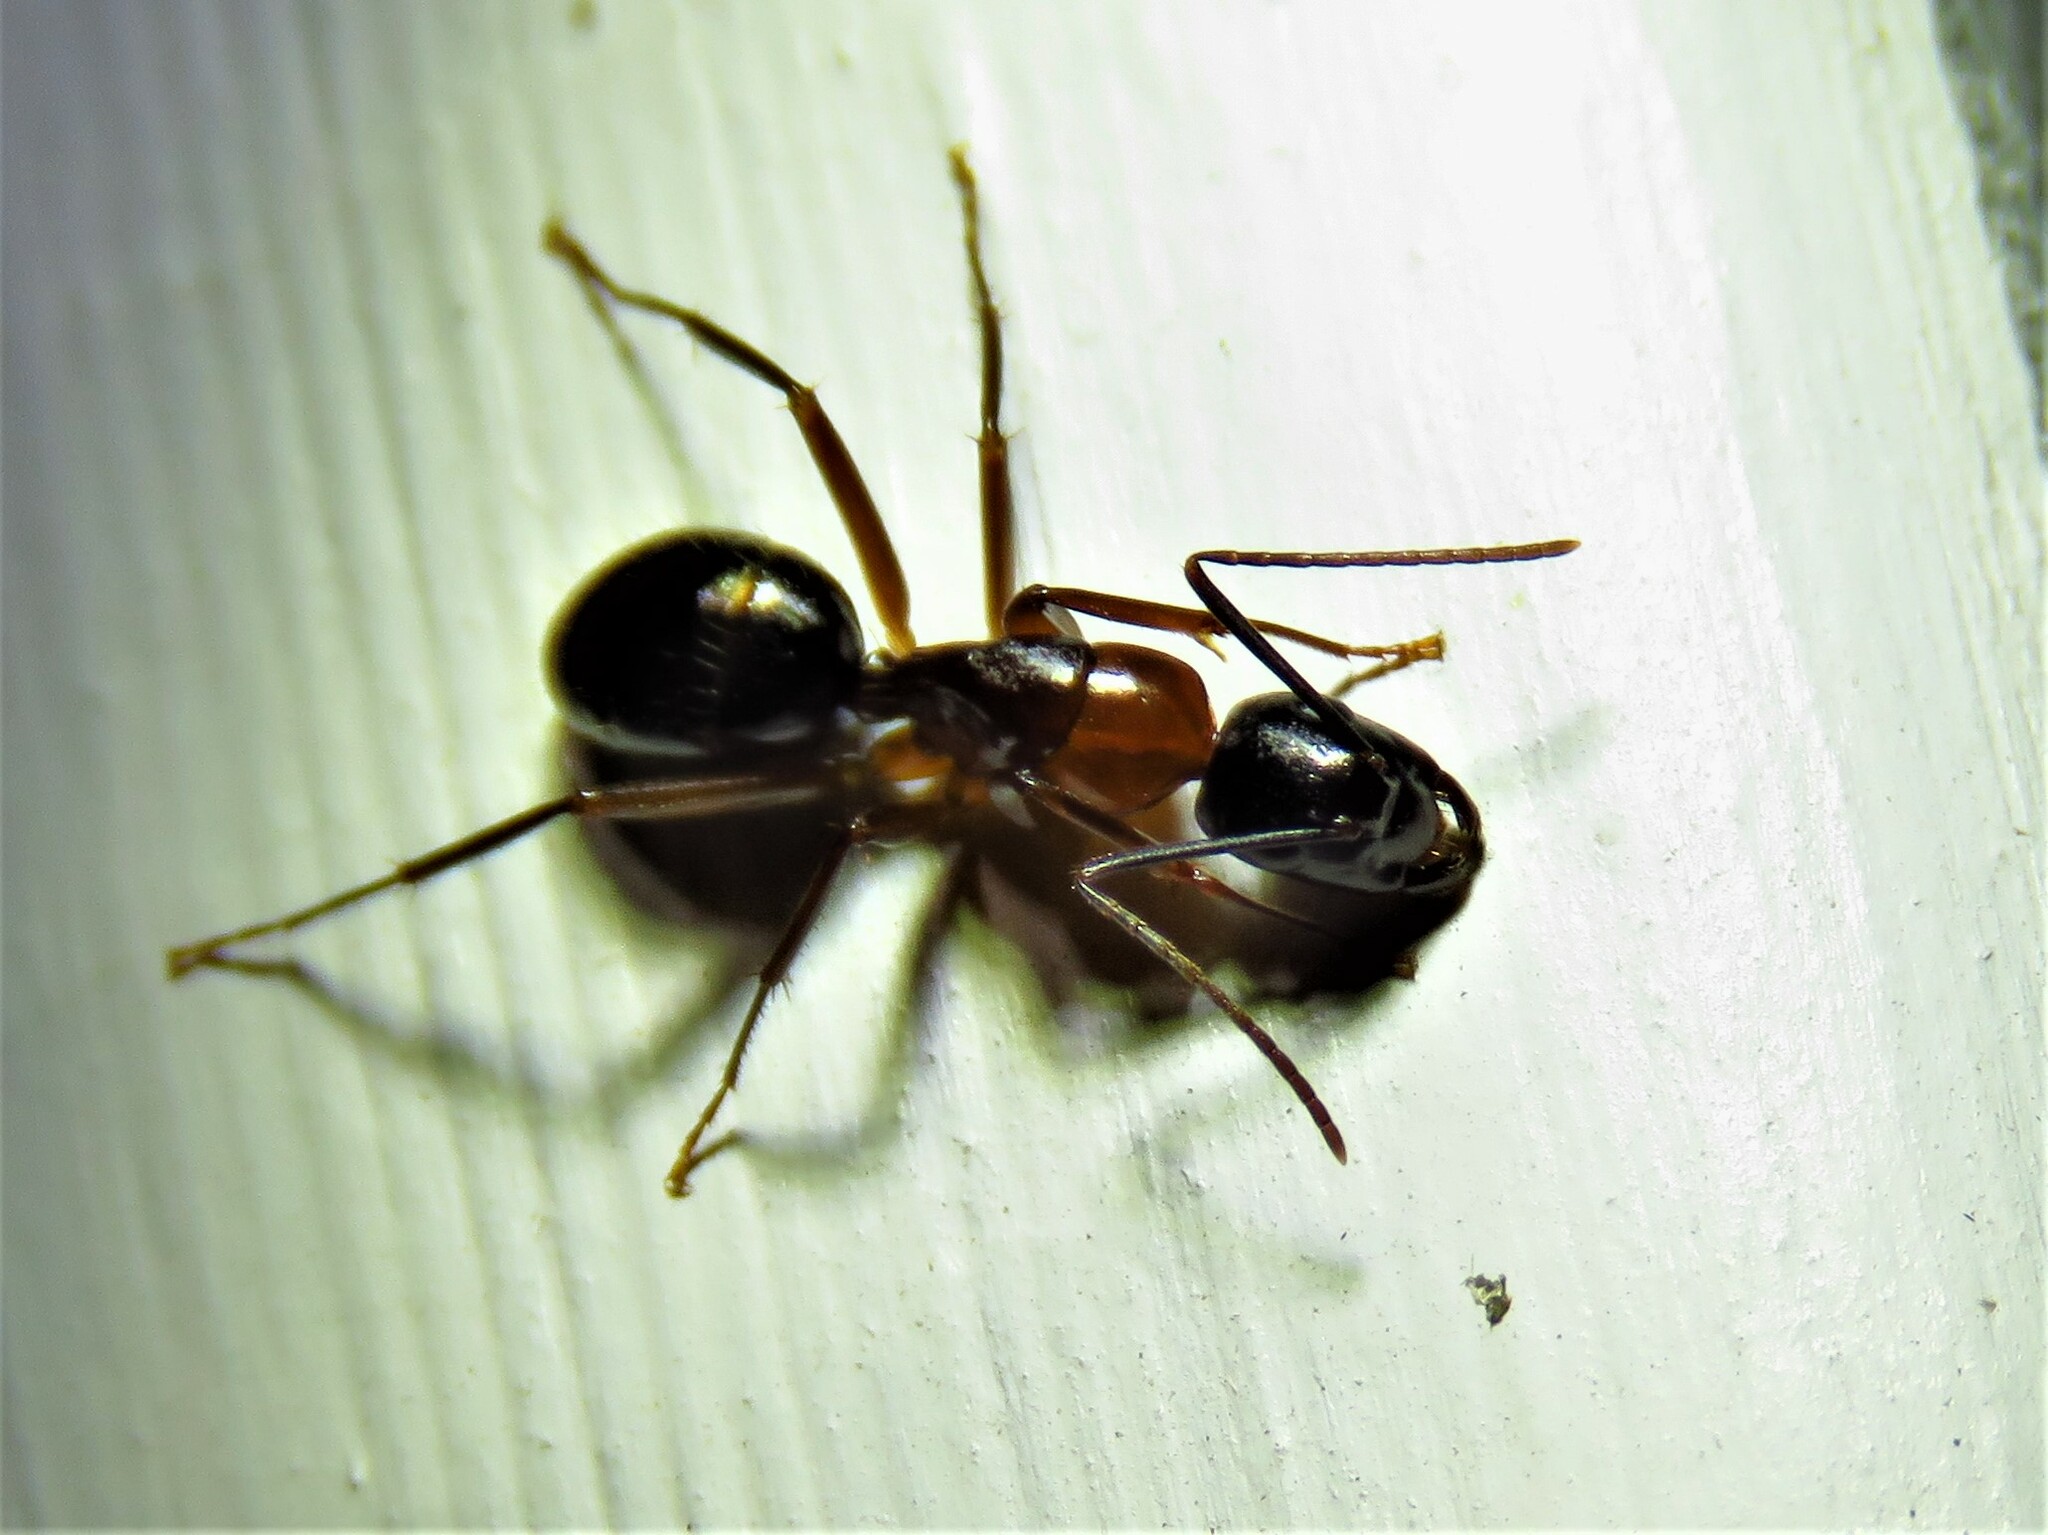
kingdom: Animalia
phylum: Arthropoda
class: Insecta
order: Hymenoptera
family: Formicidae
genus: Camponotus
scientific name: Camponotus texanus
